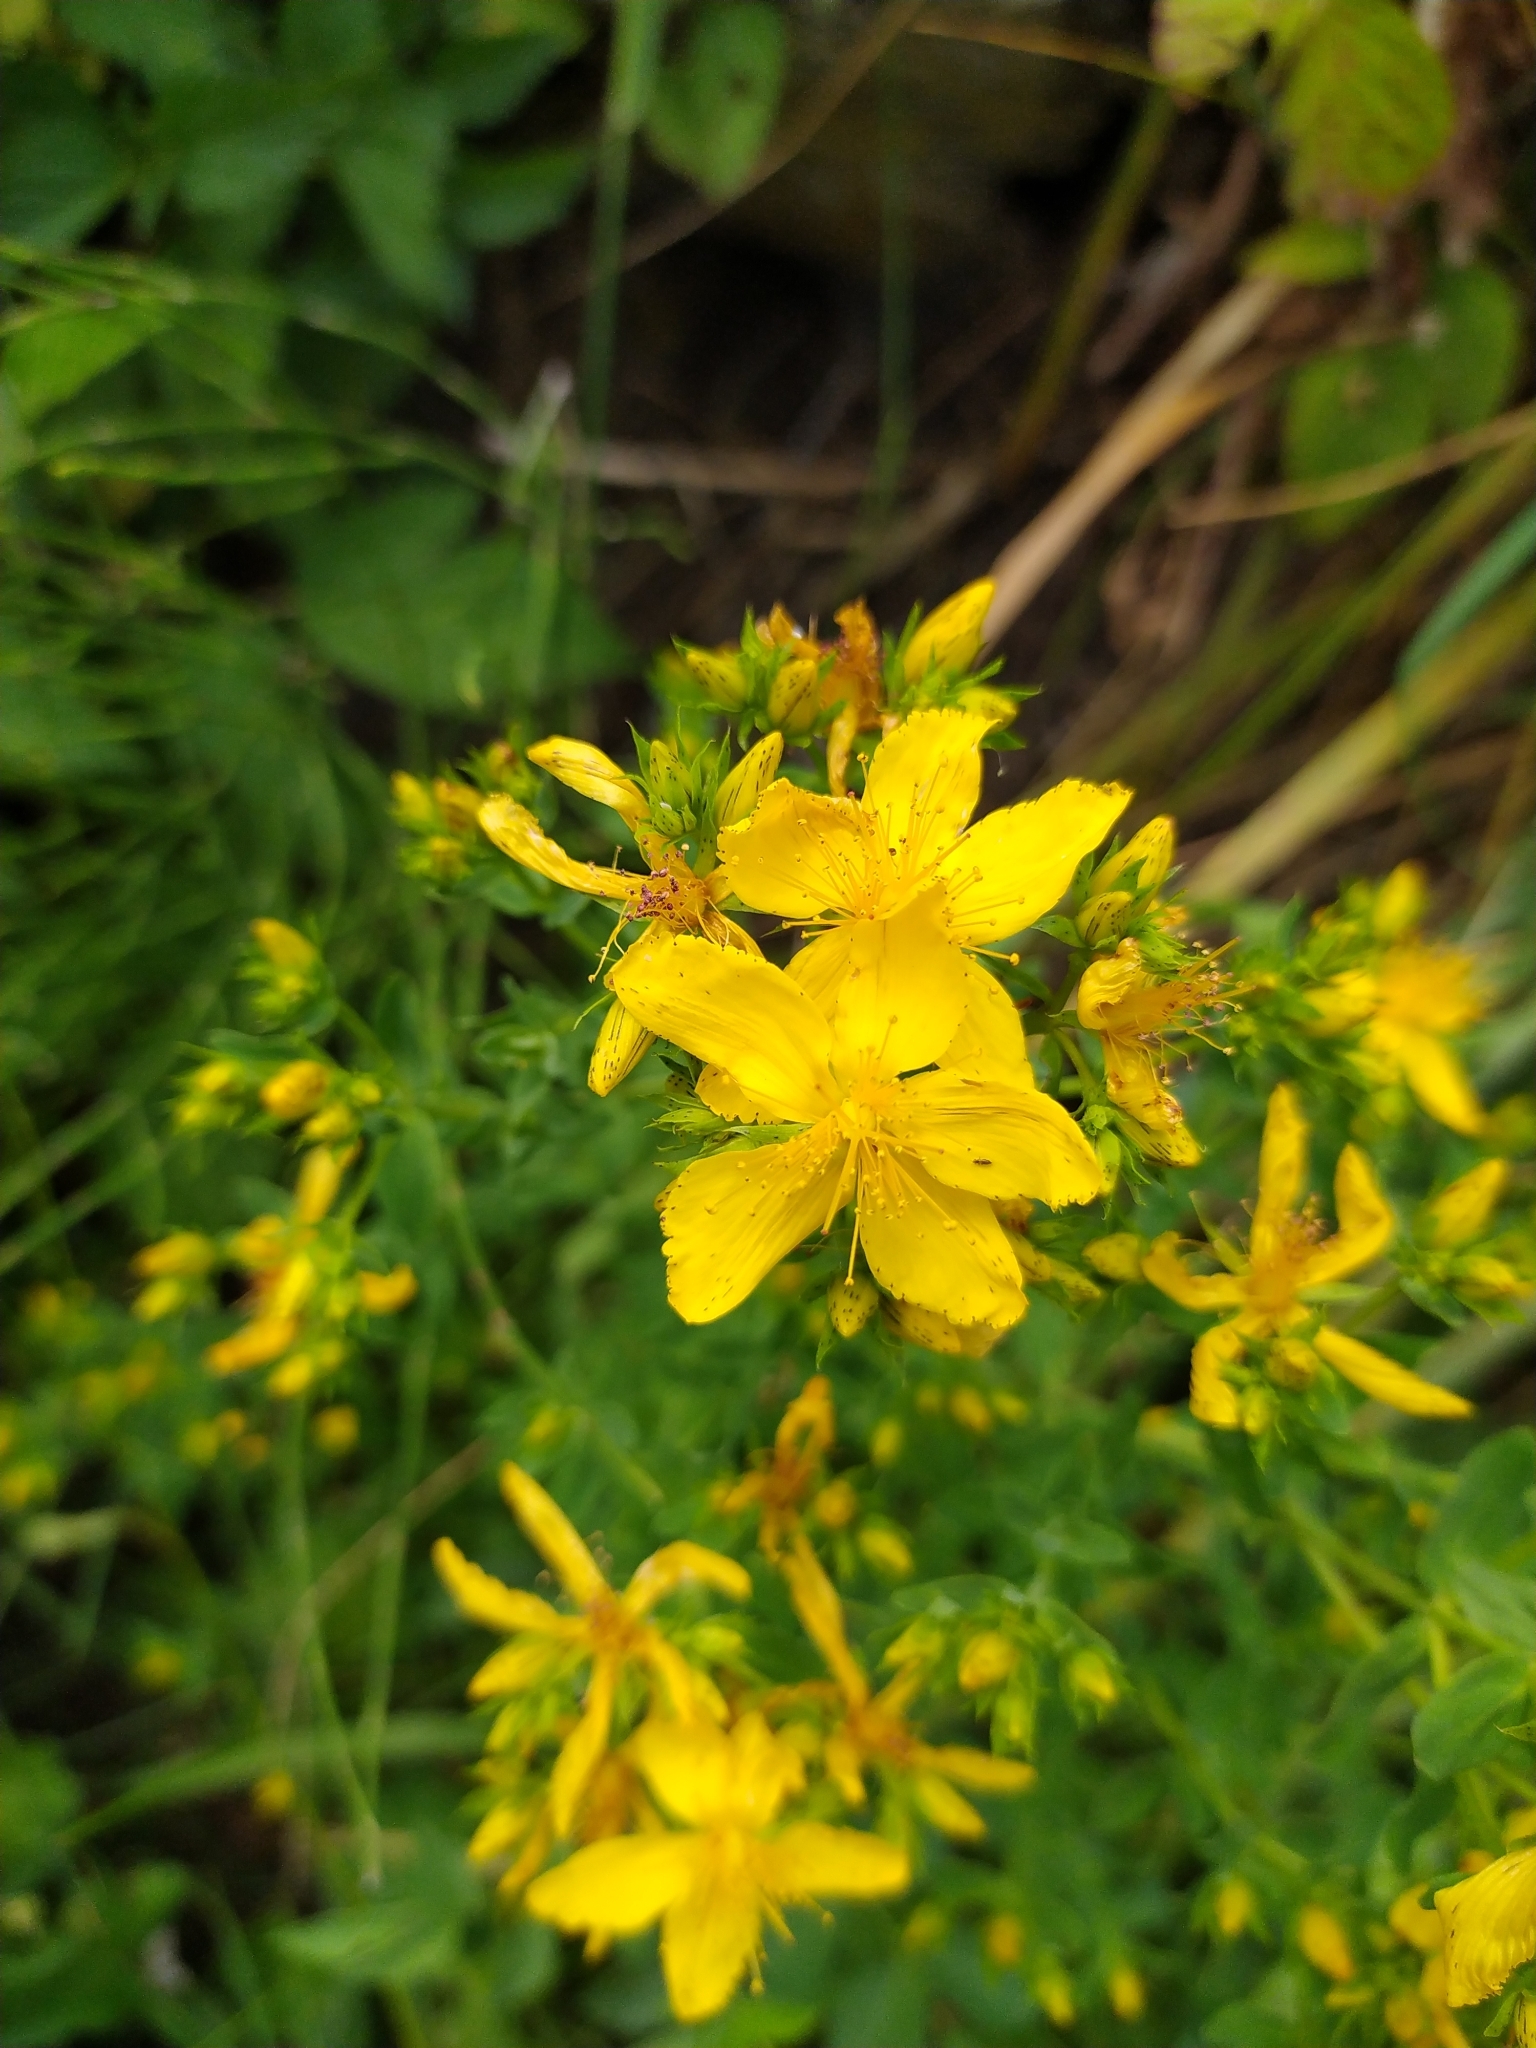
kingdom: Plantae
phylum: Tracheophyta
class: Magnoliopsida
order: Malpighiales
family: Hypericaceae
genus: Hypericum
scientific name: Hypericum perforatum
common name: Common st. johnswort
